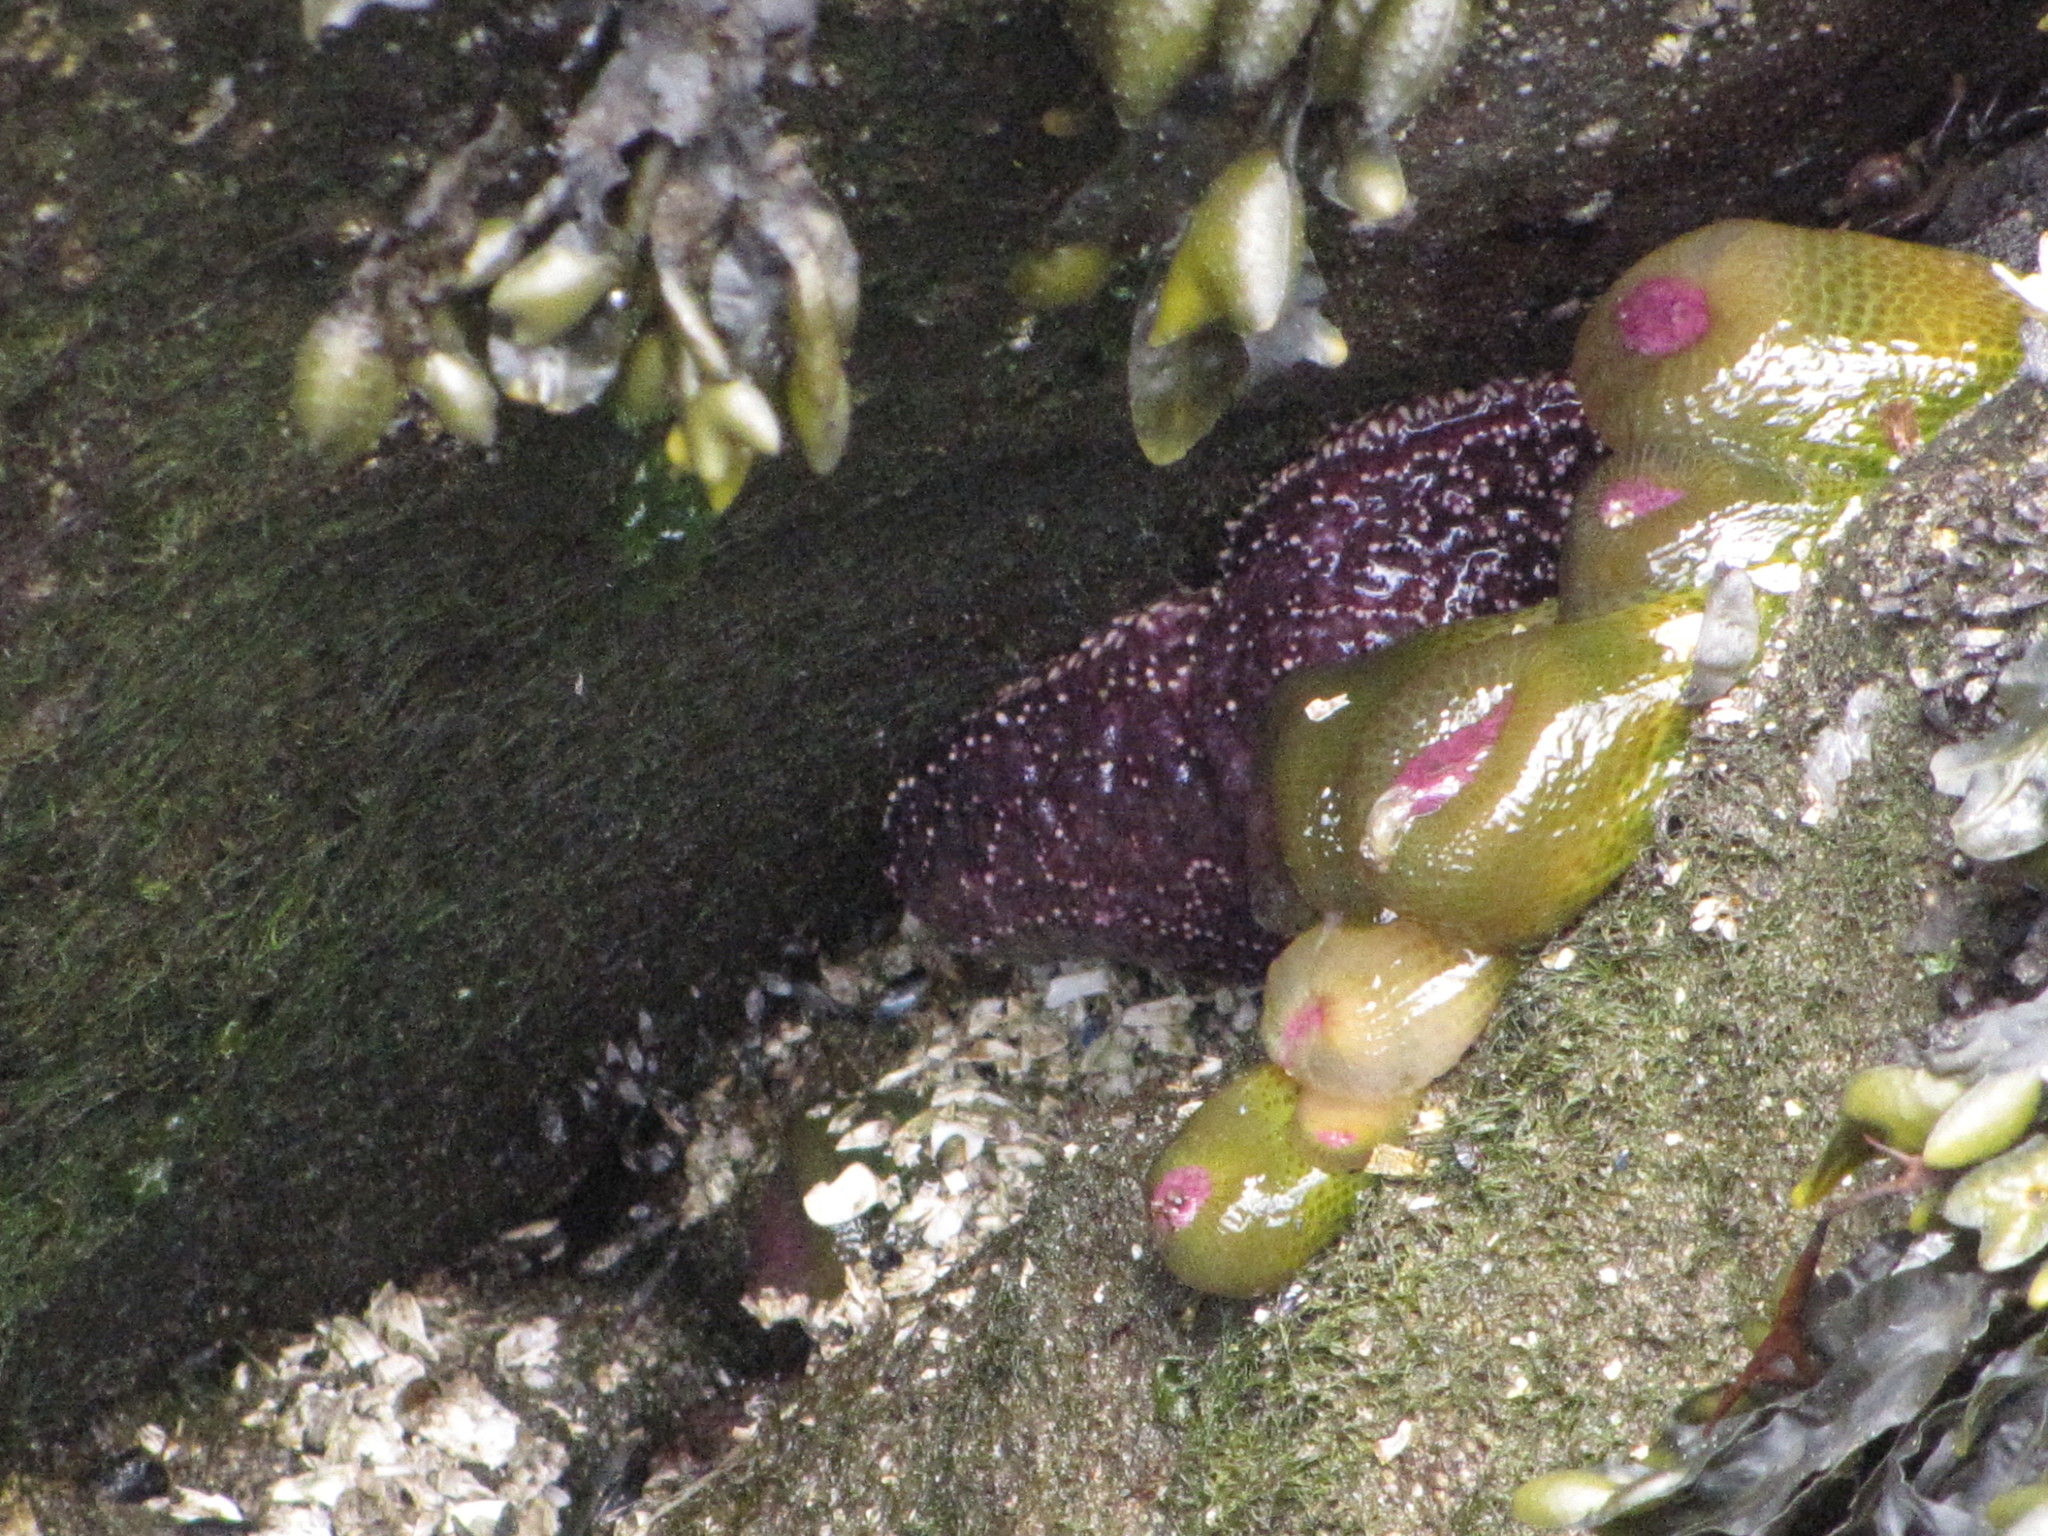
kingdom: Animalia
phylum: Echinodermata
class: Asteroidea
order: Forcipulatida
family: Asteriidae
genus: Pisaster
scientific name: Pisaster ochraceus
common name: Ochre stars
